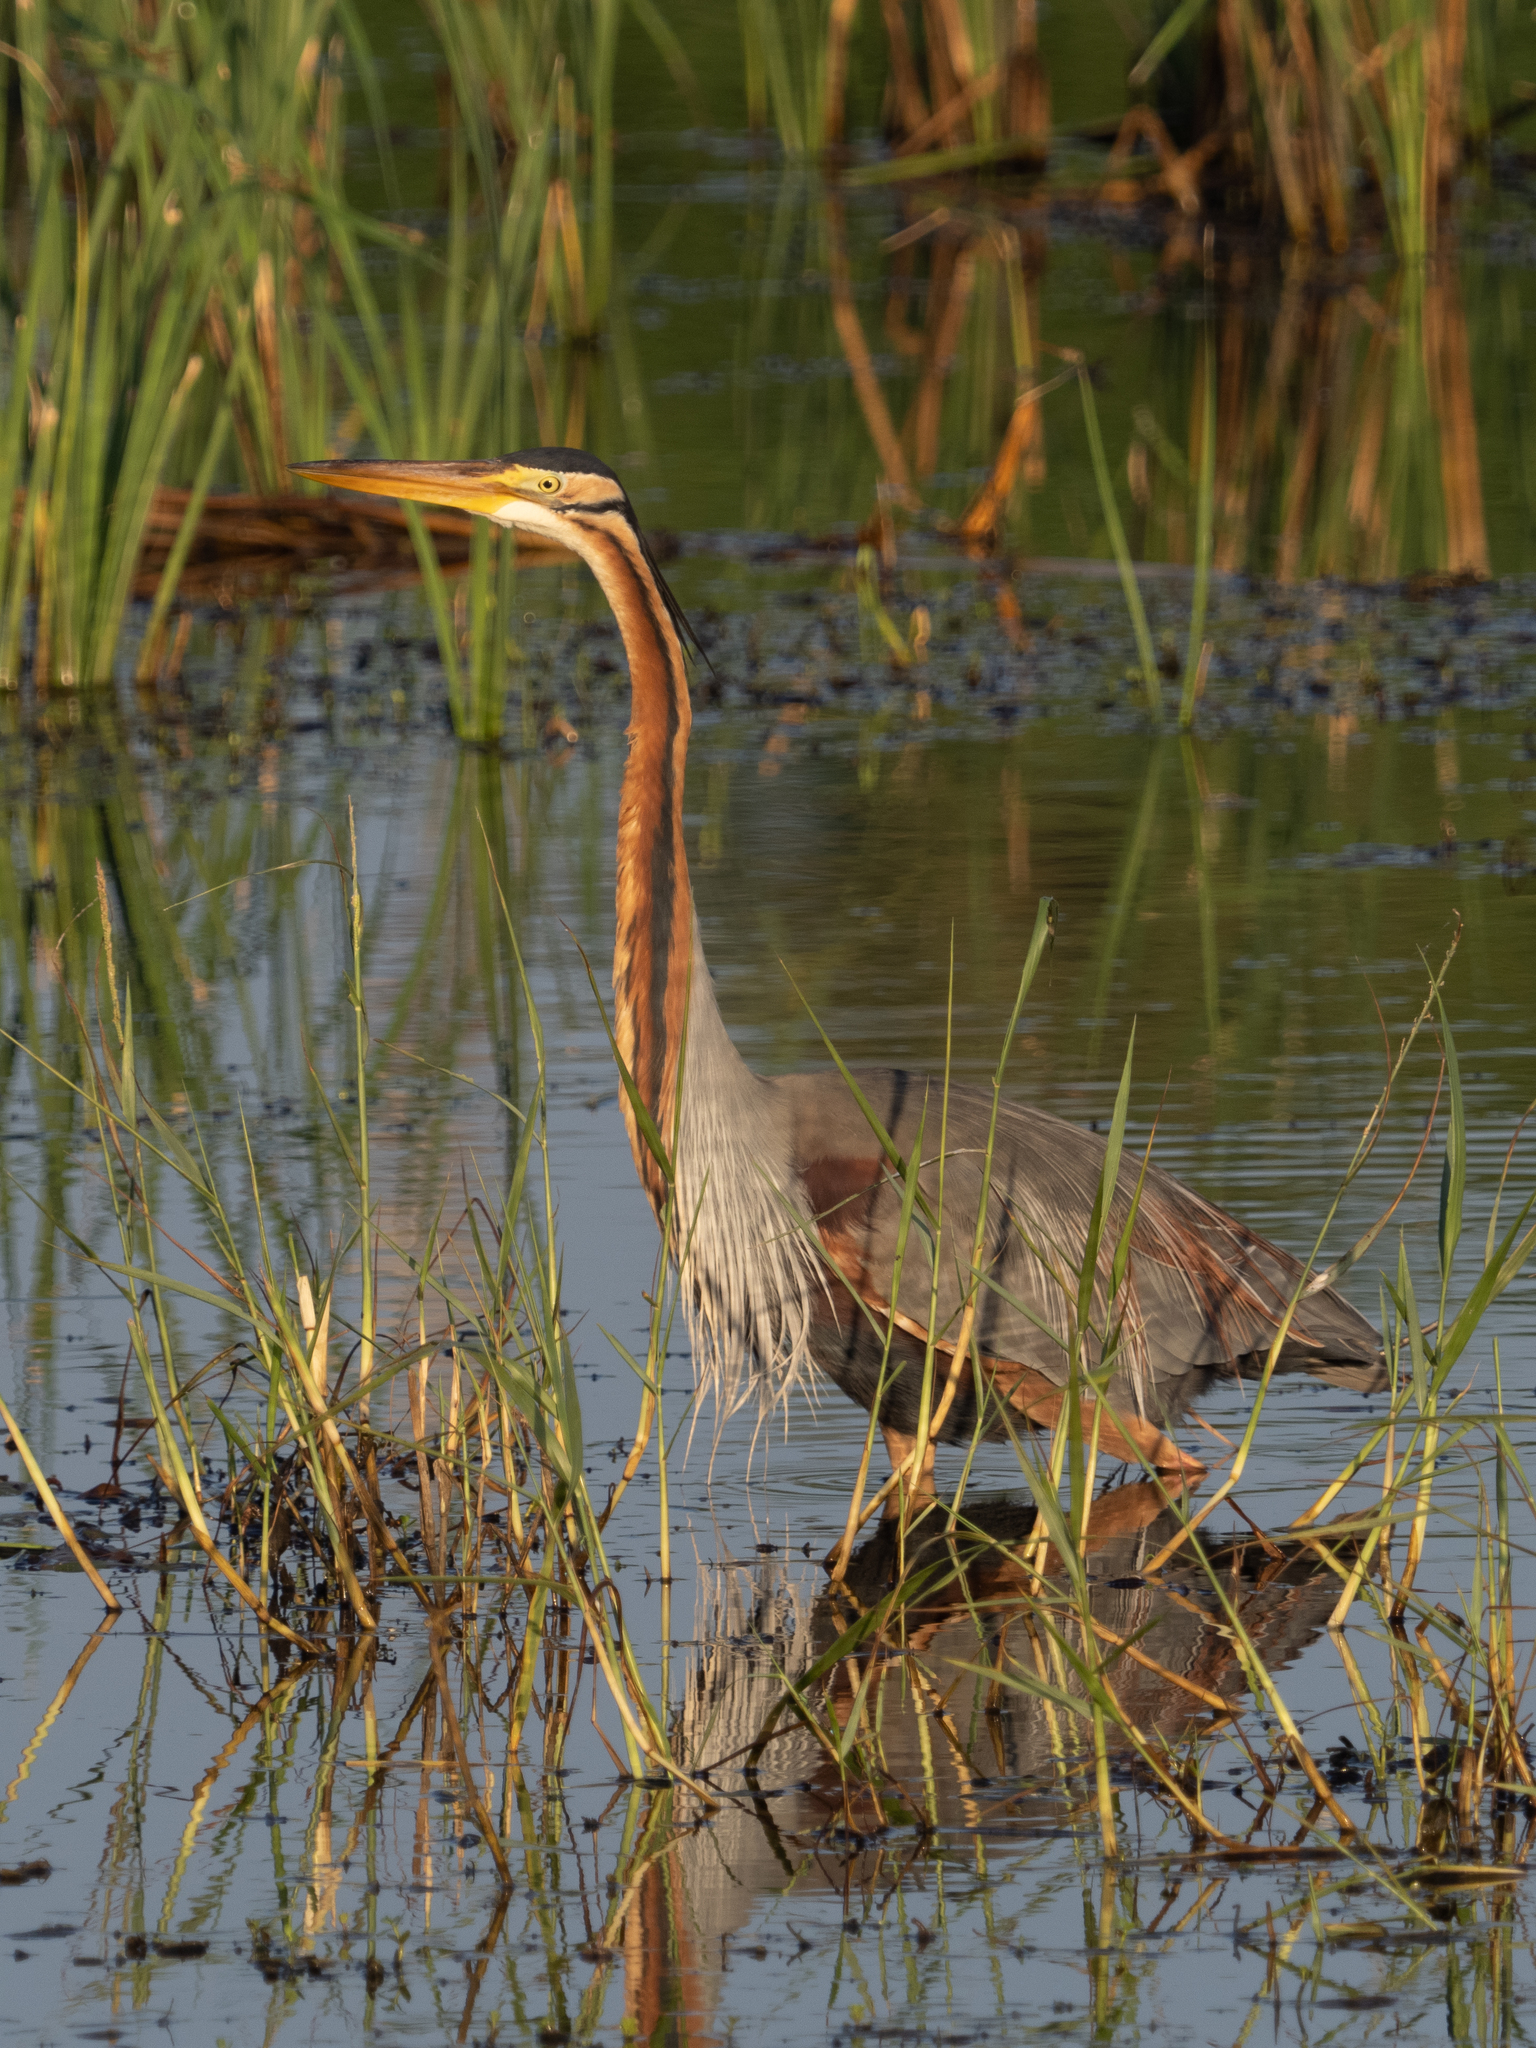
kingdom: Animalia
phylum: Chordata
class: Aves
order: Pelecaniformes
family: Ardeidae
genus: Ardea
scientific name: Ardea purpurea
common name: Purple heron
